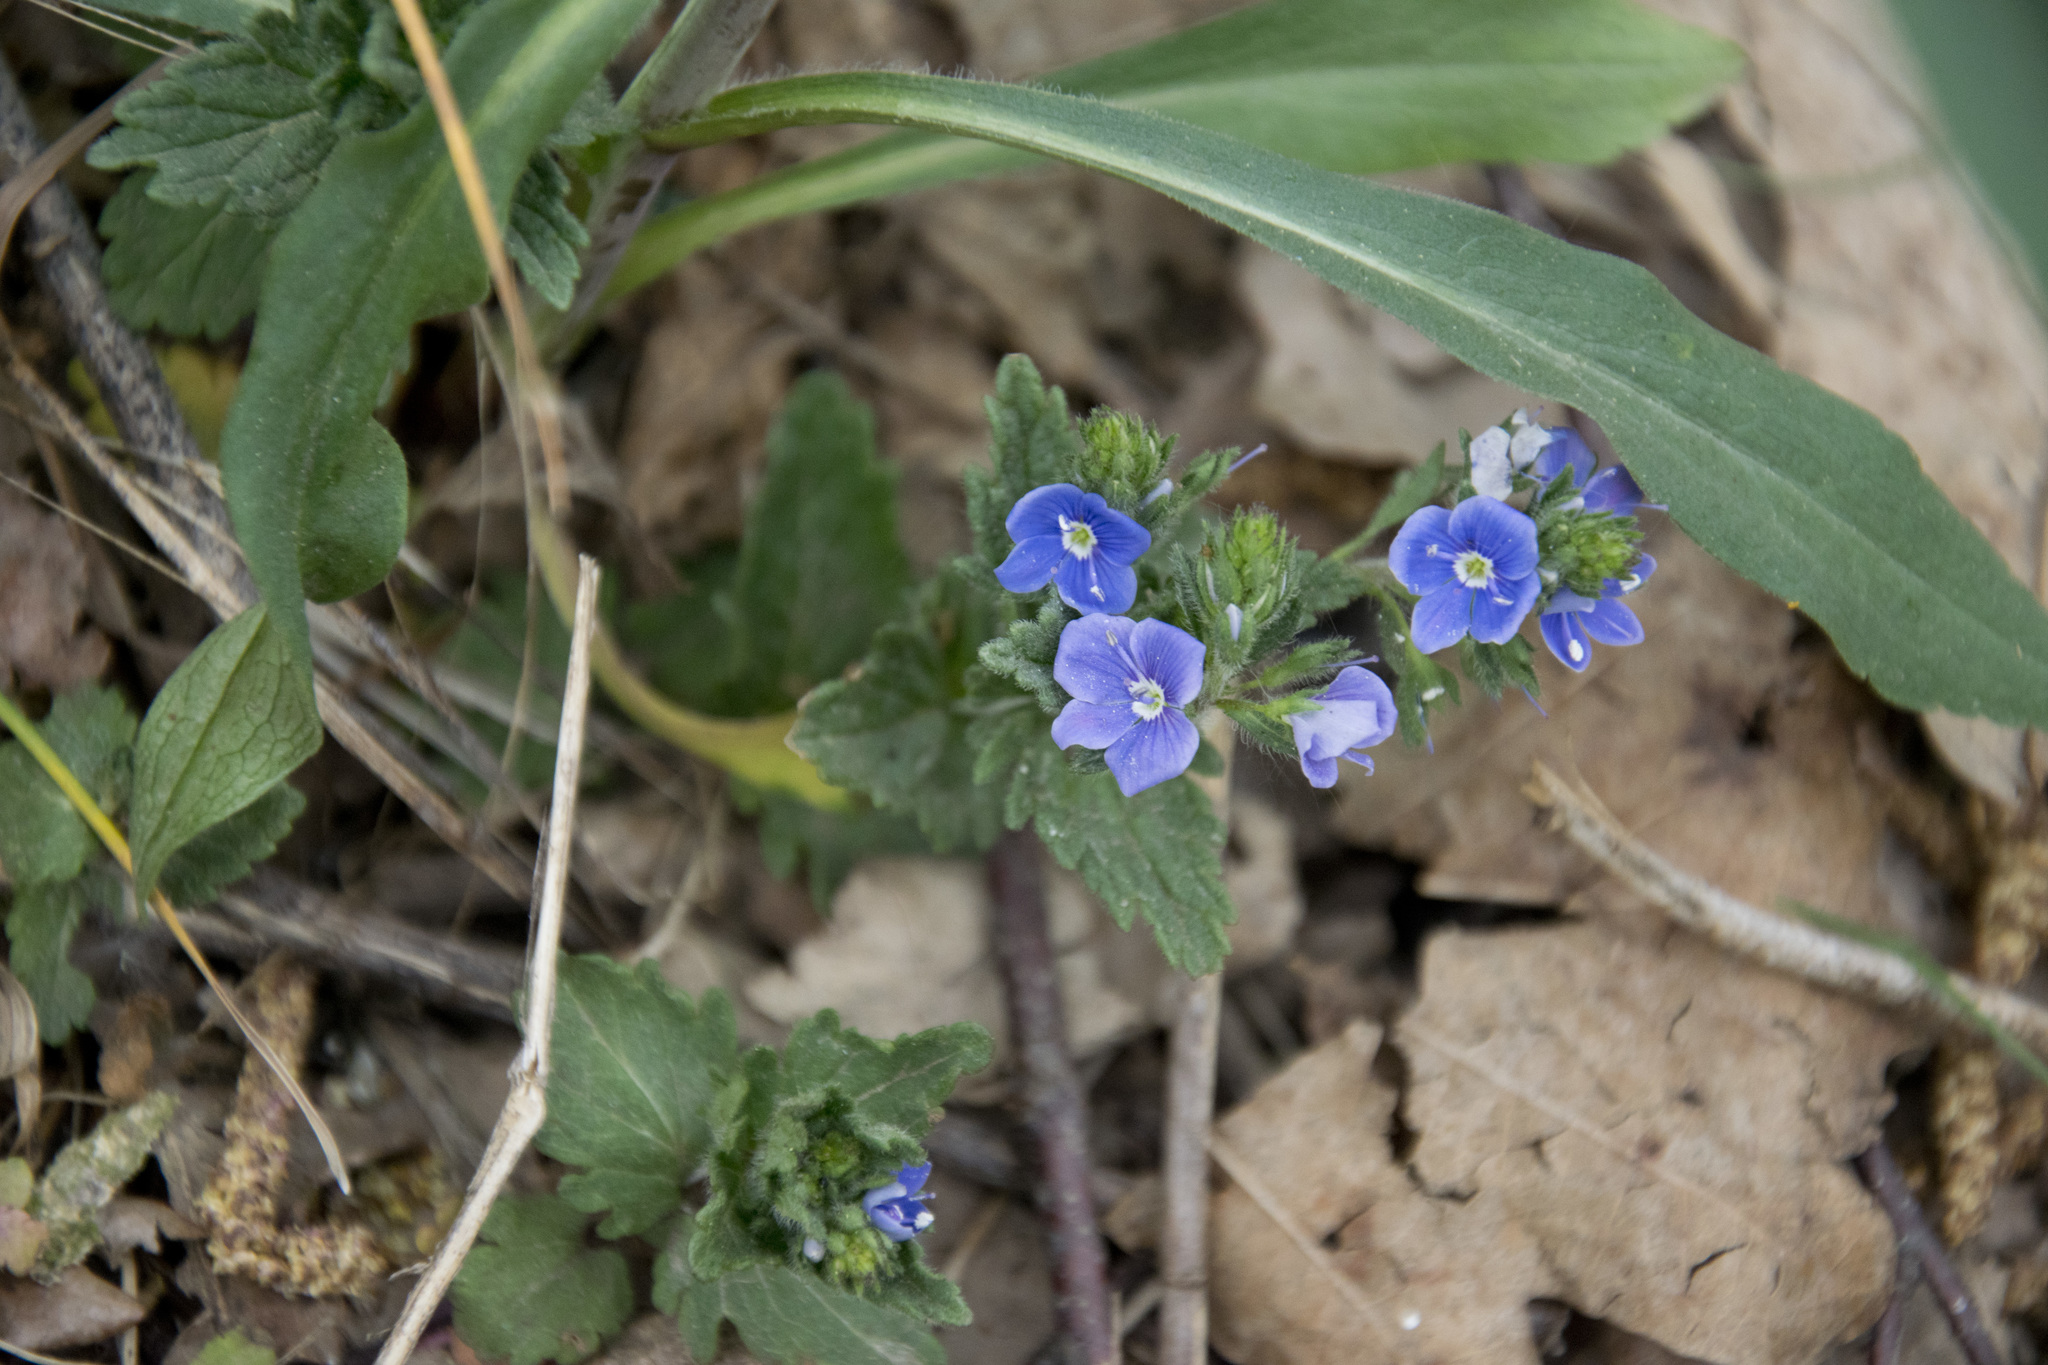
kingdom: Plantae
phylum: Tracheophyta
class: Magnoliopsida
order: Lamiales
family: Plantaginaceae
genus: Veronica
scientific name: Veronica chamaedrys
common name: Germander speedwell
